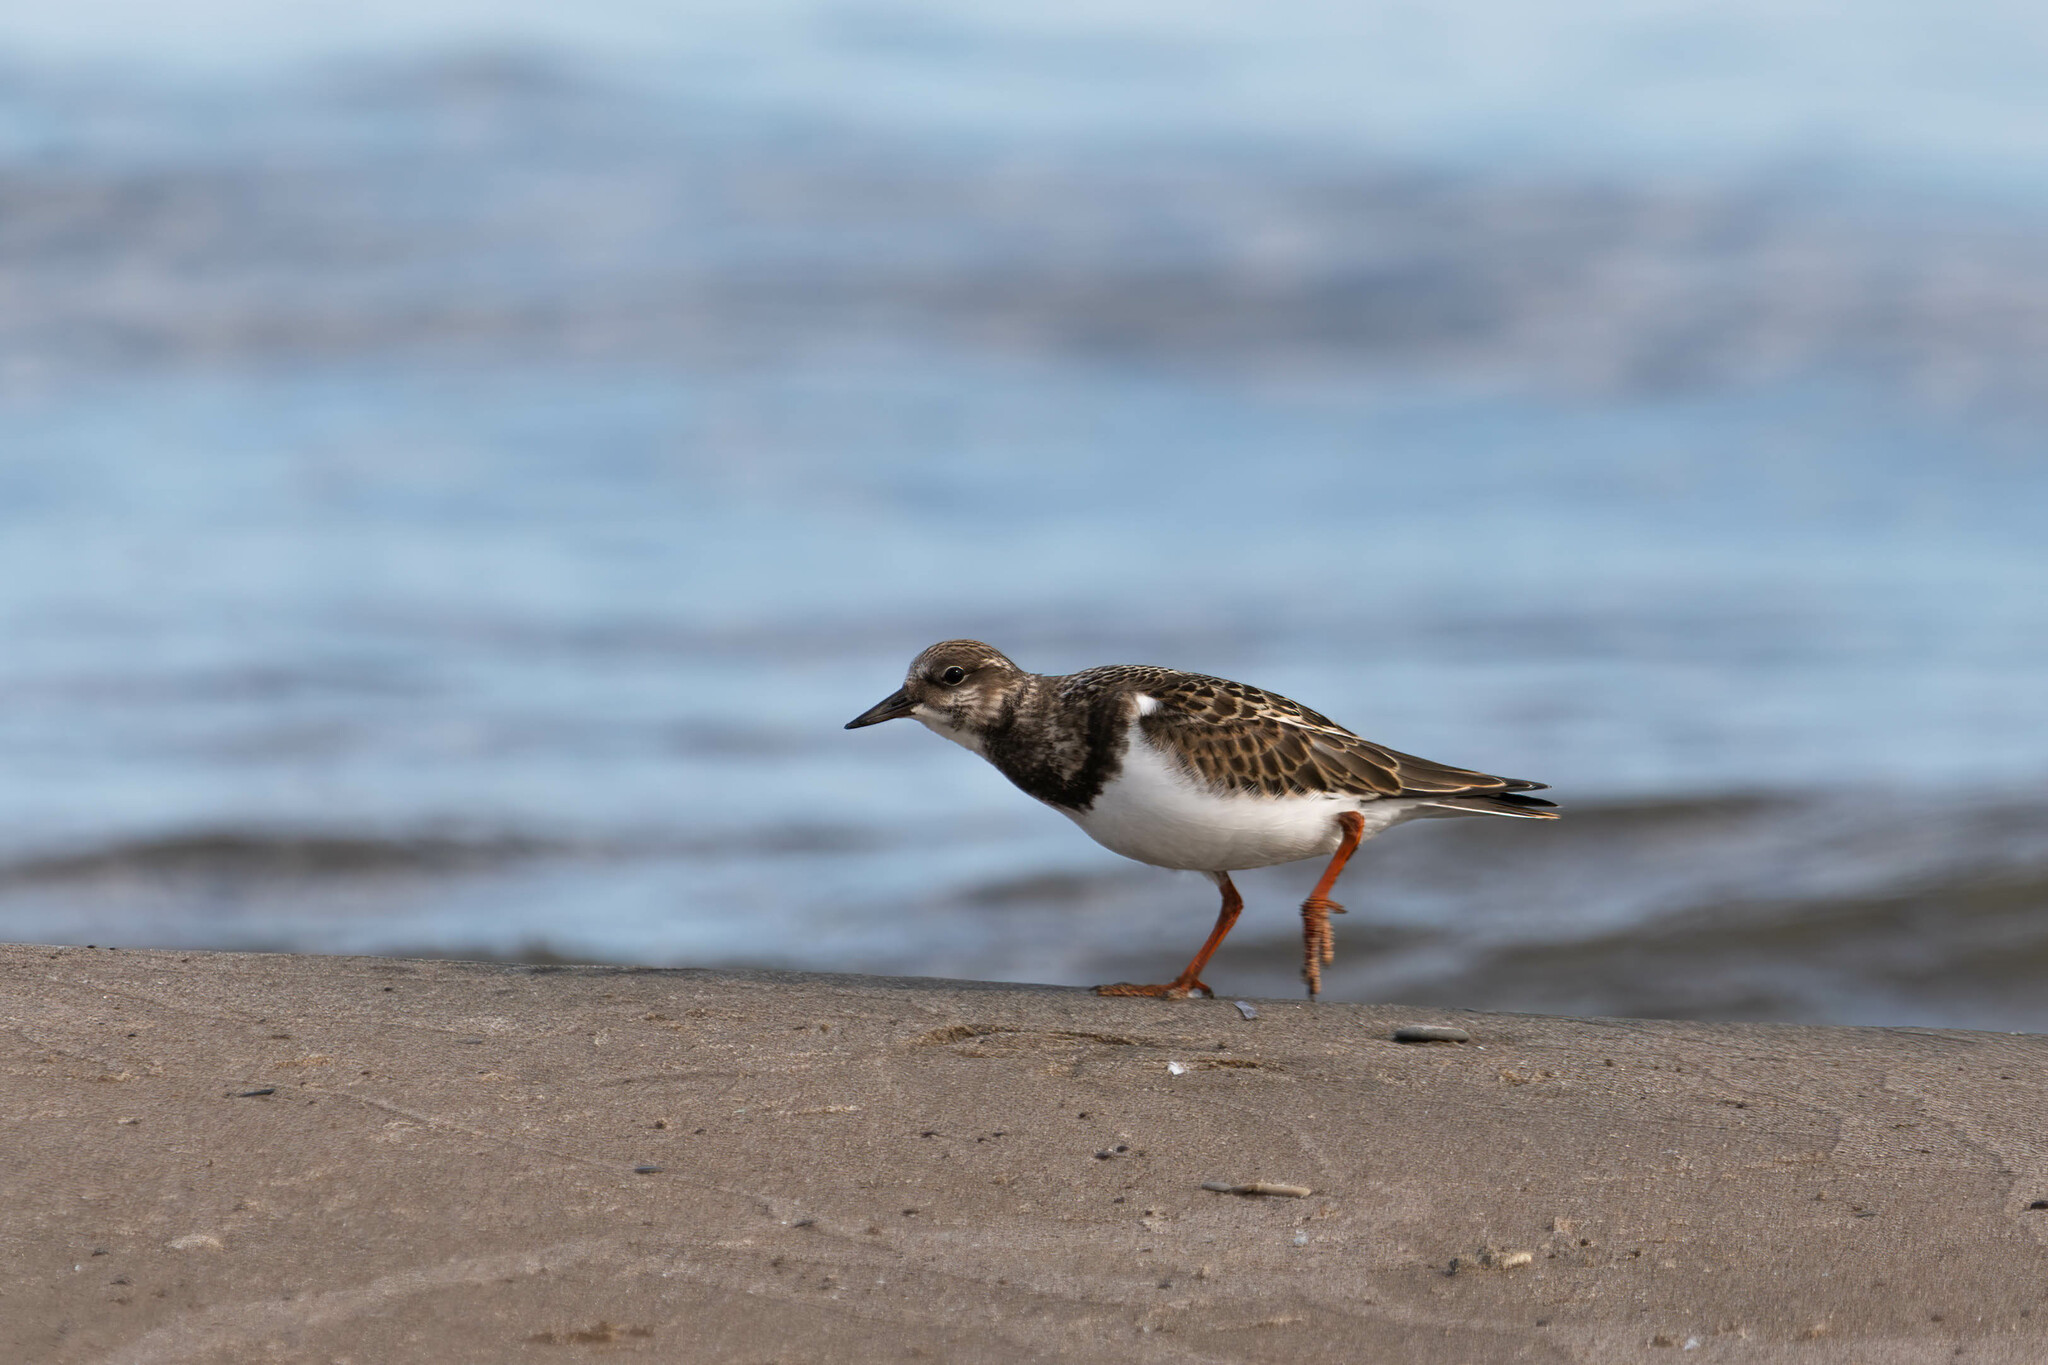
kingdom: Animalia
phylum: Chordata
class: Aves
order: Charadriiformes
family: Scolopacidae
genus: Arenaria
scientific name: Arenaria interpres
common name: Ruddy turnstone
